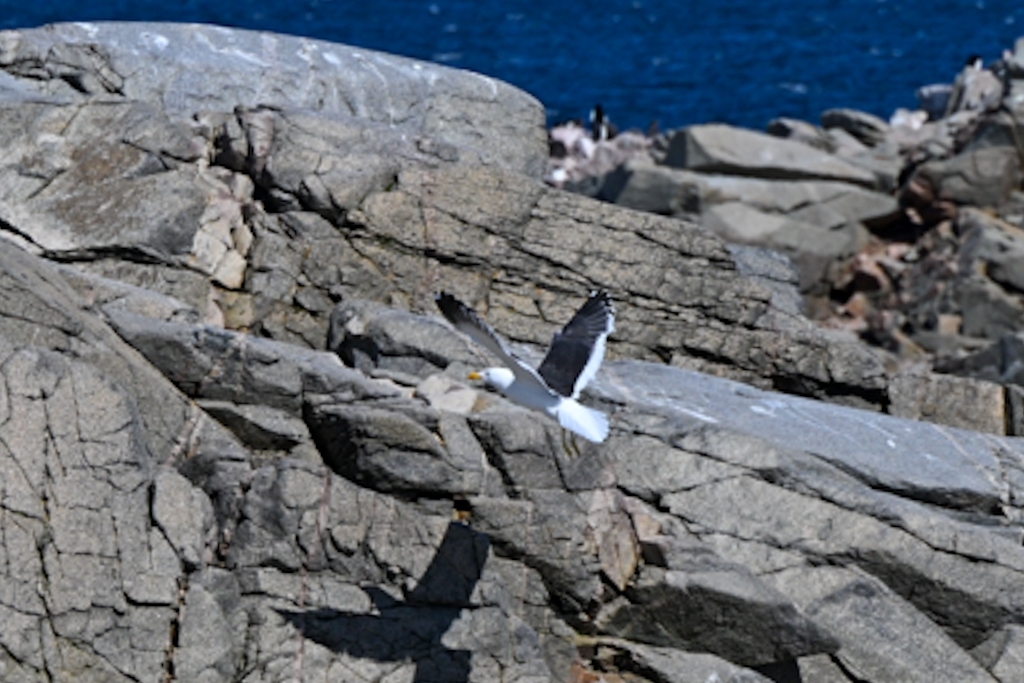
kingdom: Animalia
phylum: Chordata
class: Aves
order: Charadriiformes
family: Laridae
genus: Larus
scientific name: Larus dominicanus
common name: Kelp gull
